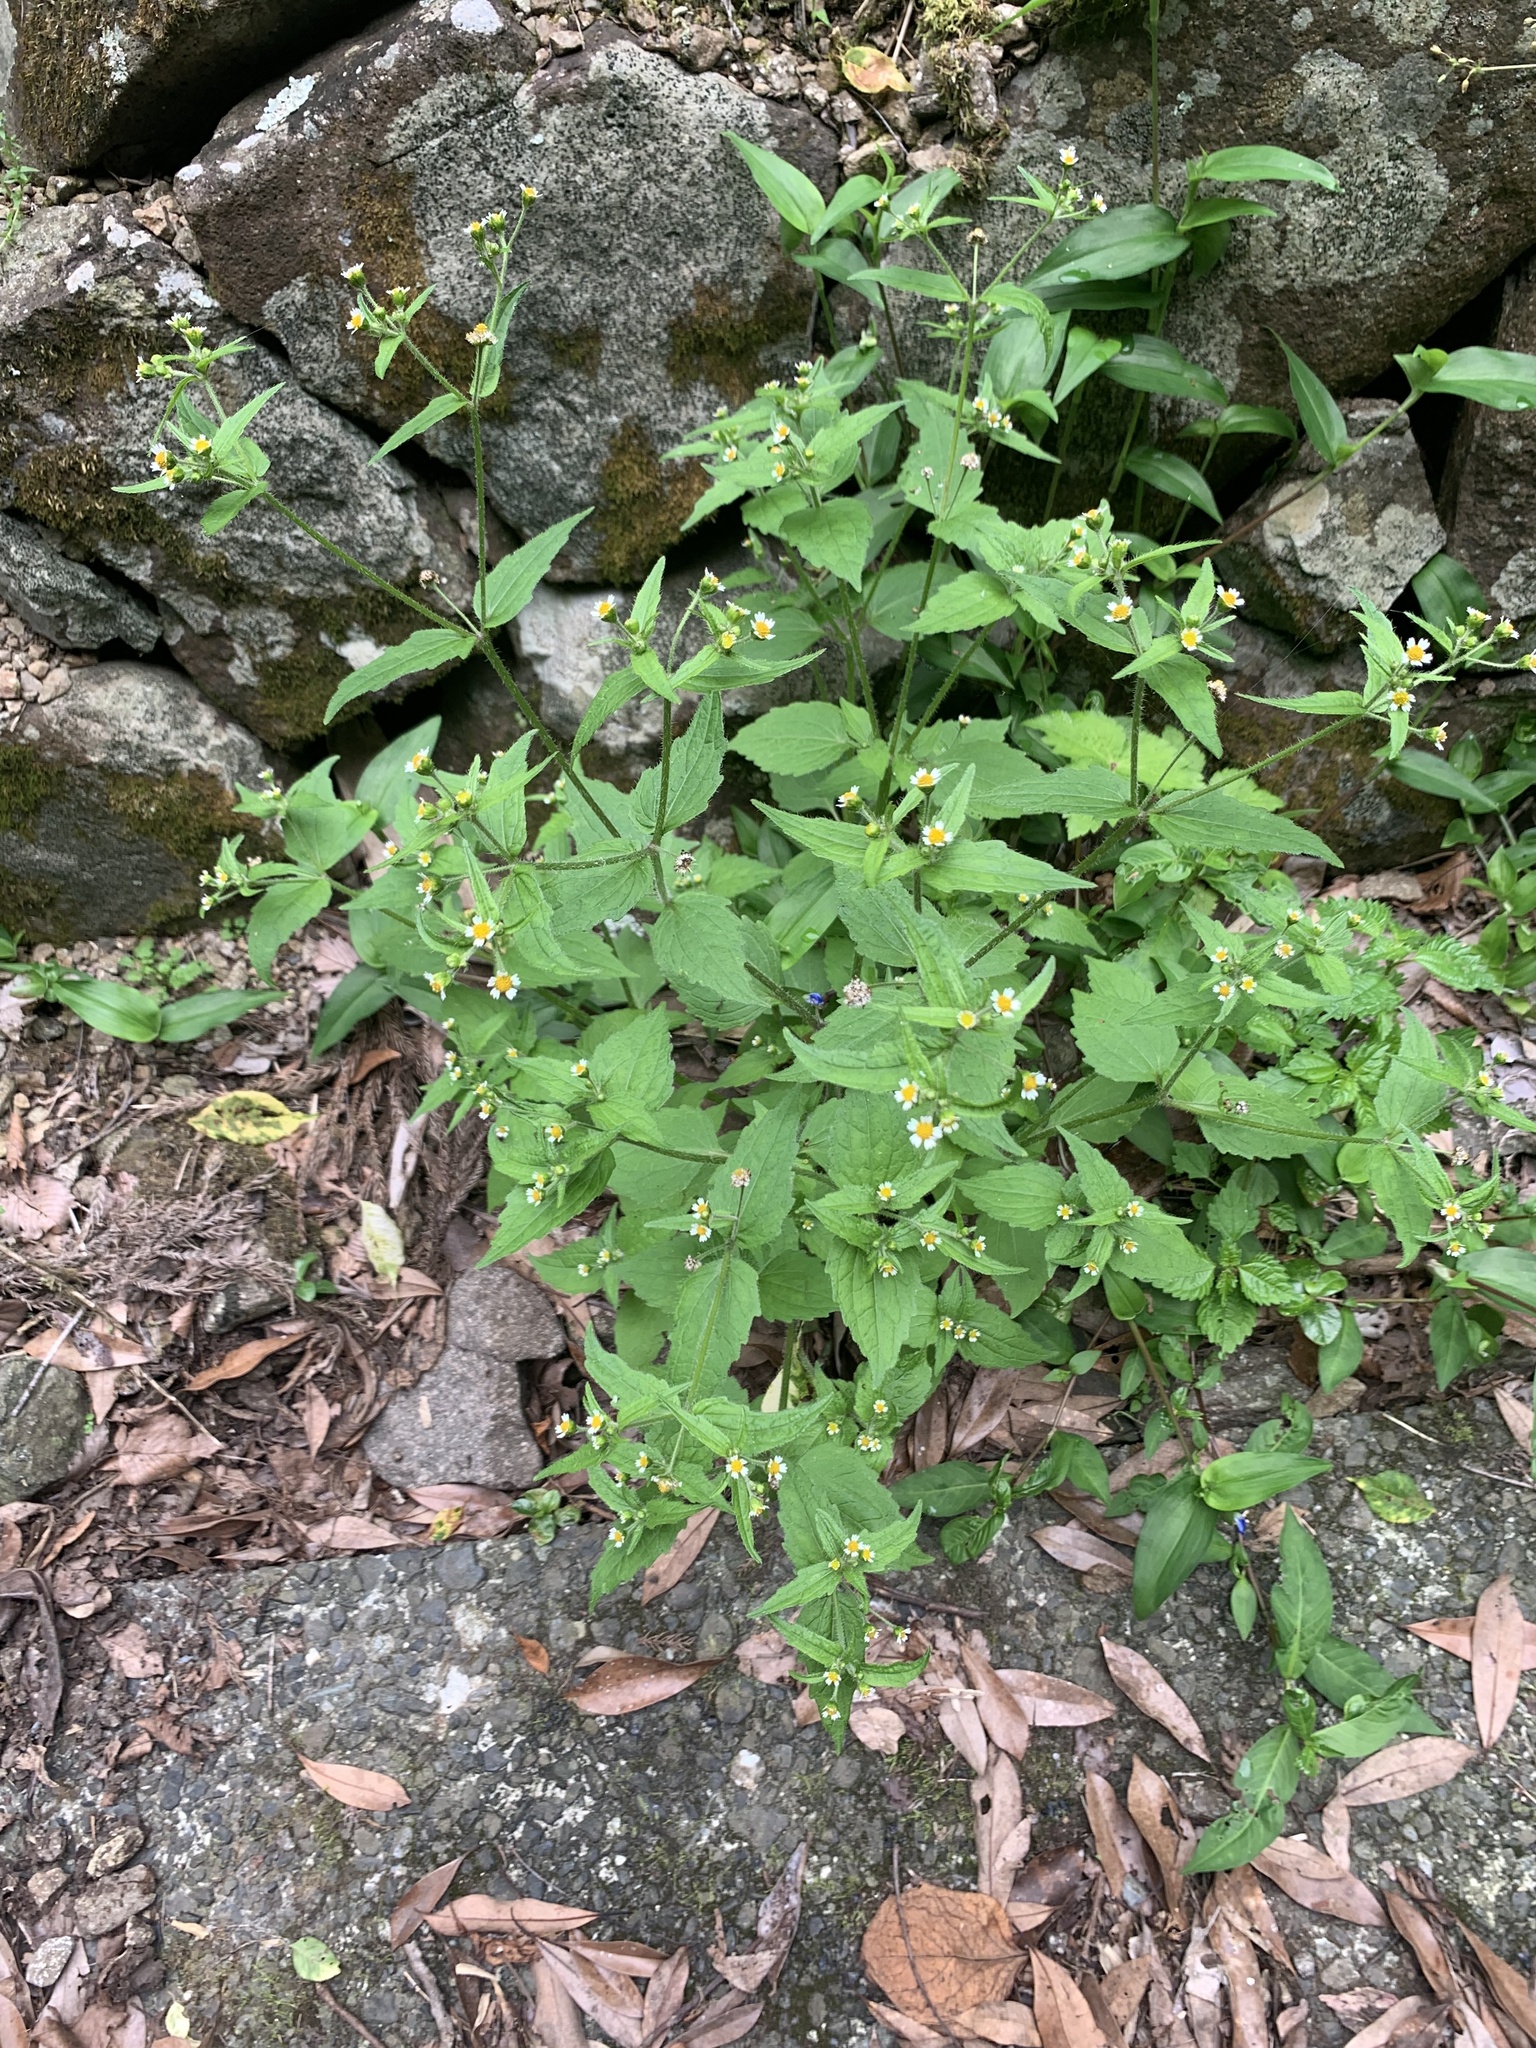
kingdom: Plantae
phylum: Tracheophyta
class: Magnoliopsida
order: Asterales
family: Asteraceae
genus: Galinsoga
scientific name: Galinsoga quadriradiata
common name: Shaggy soldier
